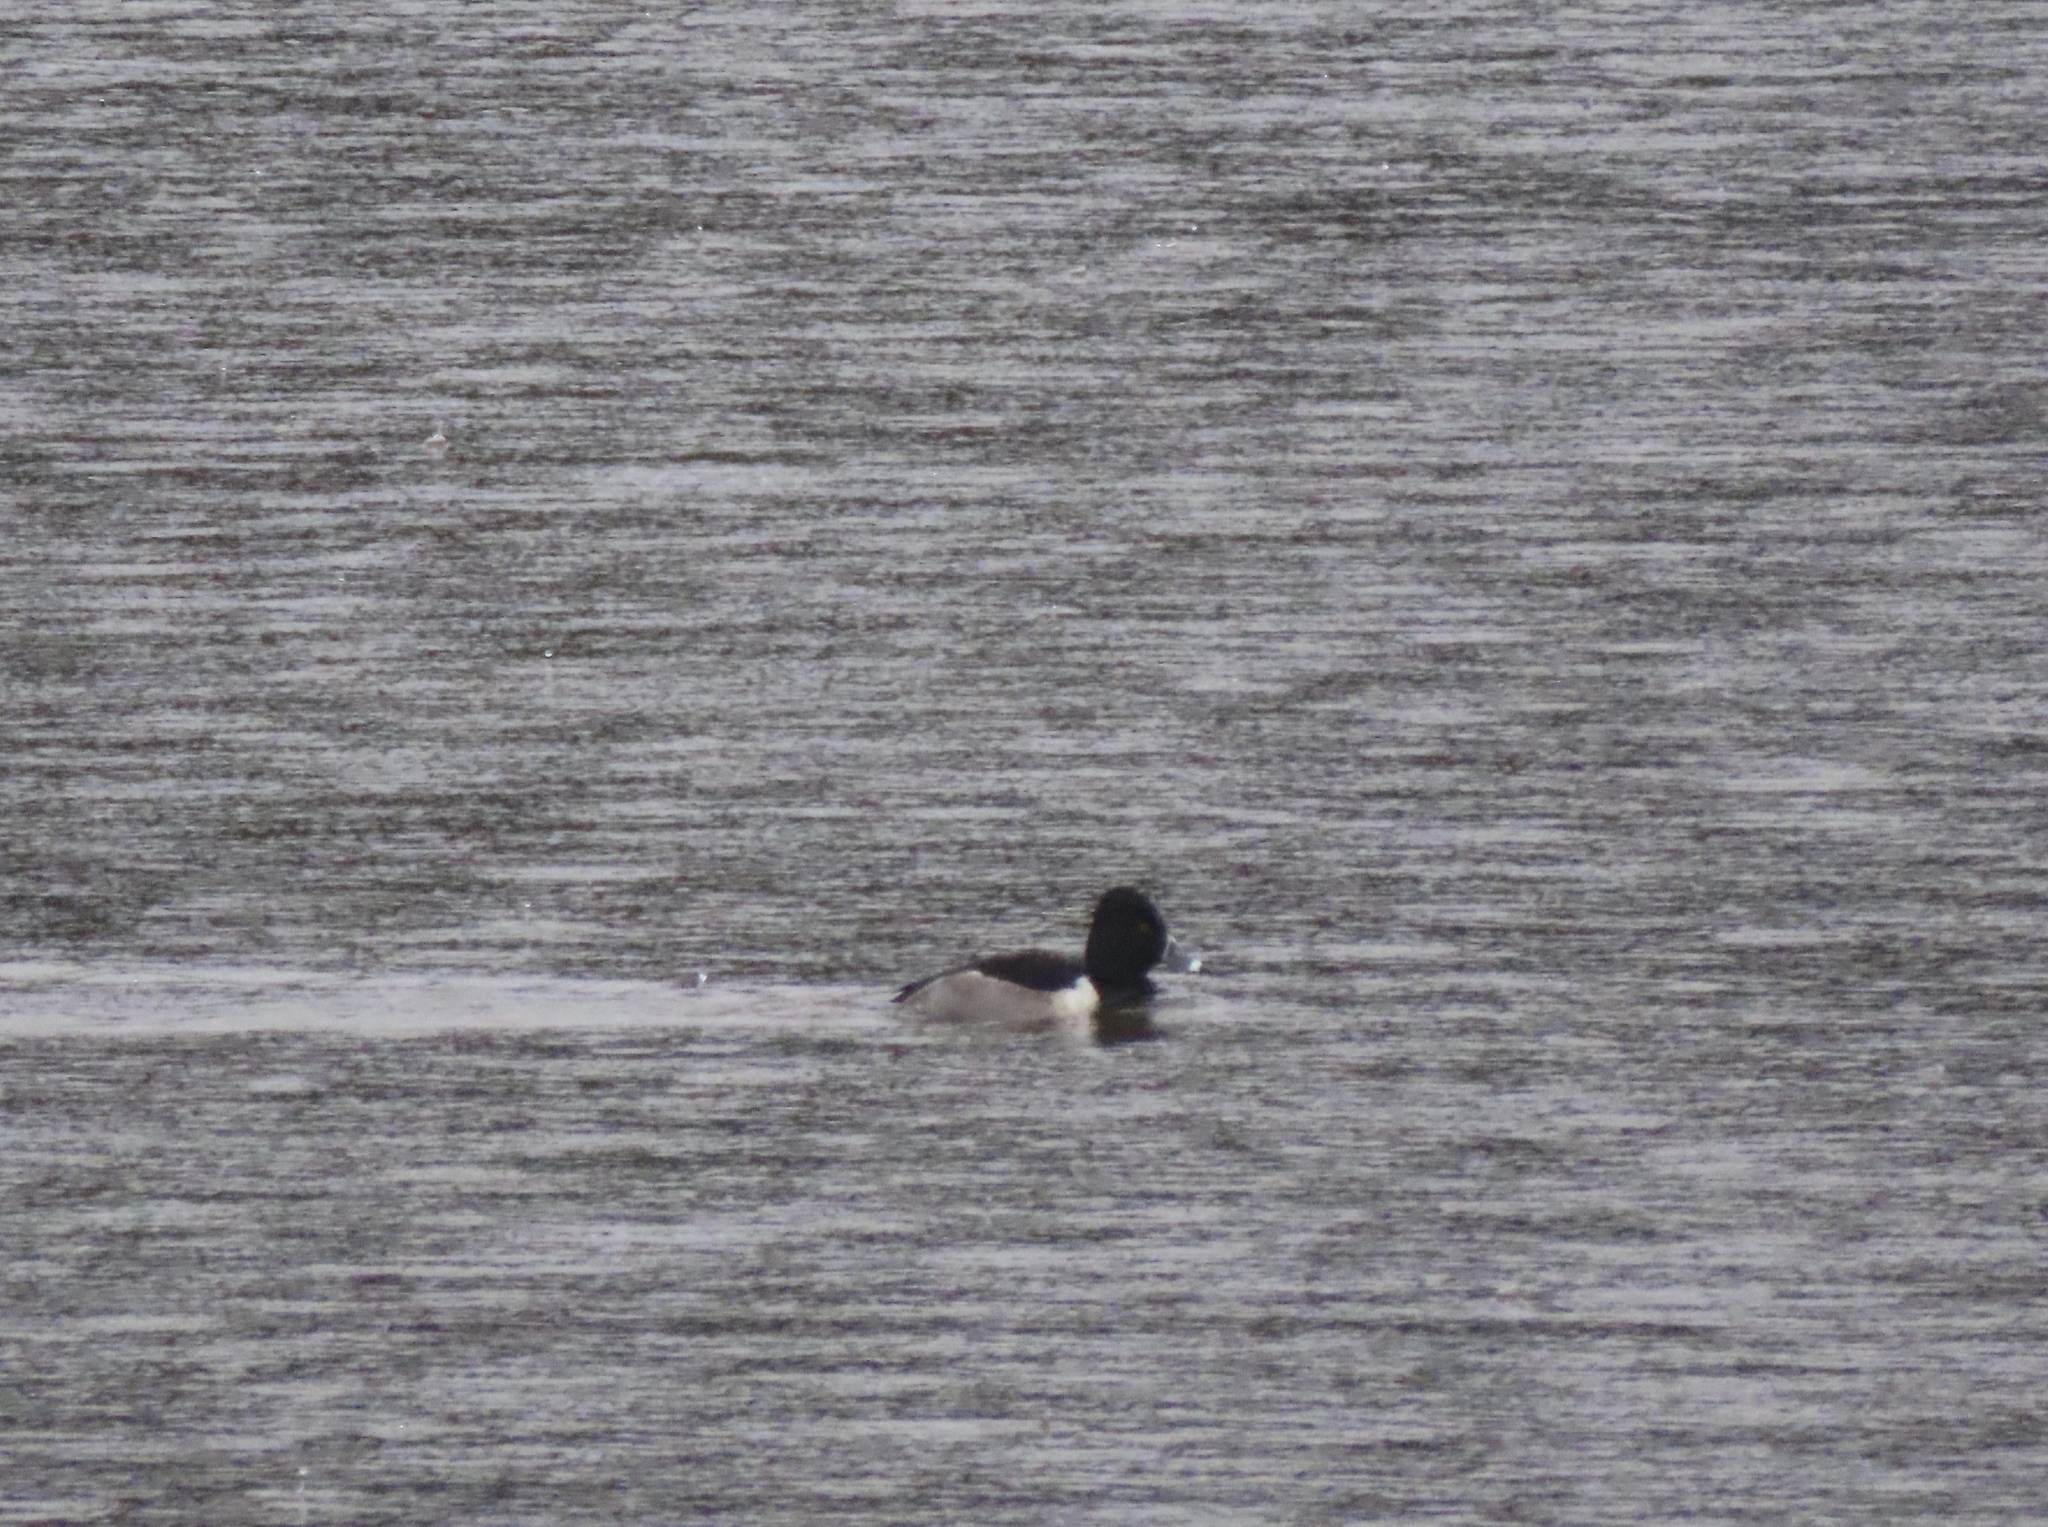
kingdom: Animalia
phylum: Chordata
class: Aves
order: Anseriformes
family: Anatidae
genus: Aythya
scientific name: Aythya collaris
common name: Ring-necked duck
